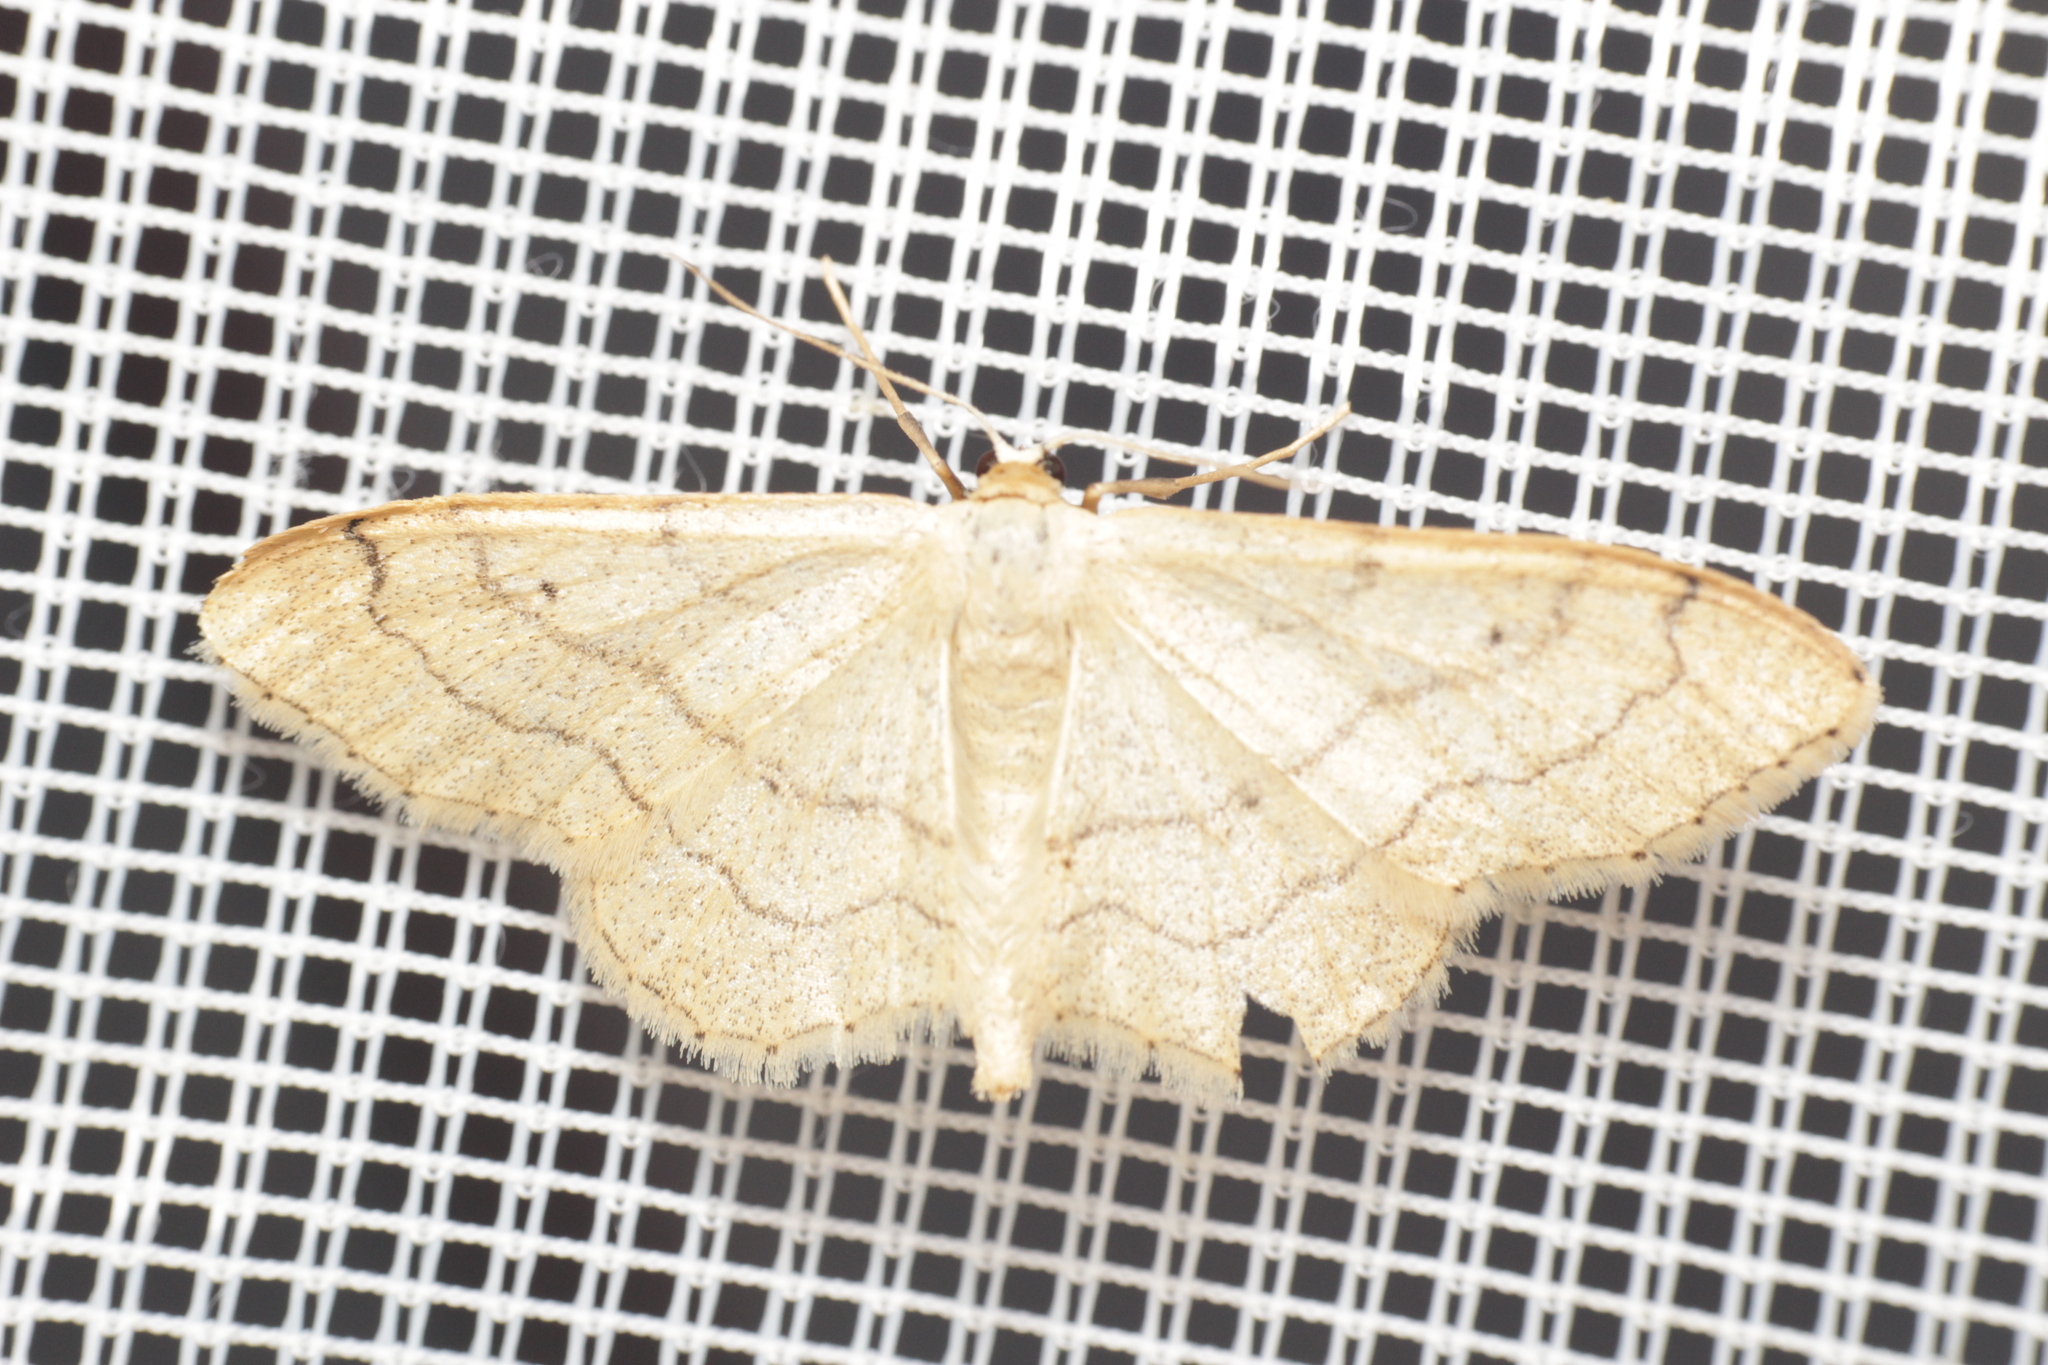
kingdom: Animalia
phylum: Arthropoda
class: Insecta
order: Lepidoptera
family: Geometridae
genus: Idaea
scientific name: Idaea aversata
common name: Riband wave
